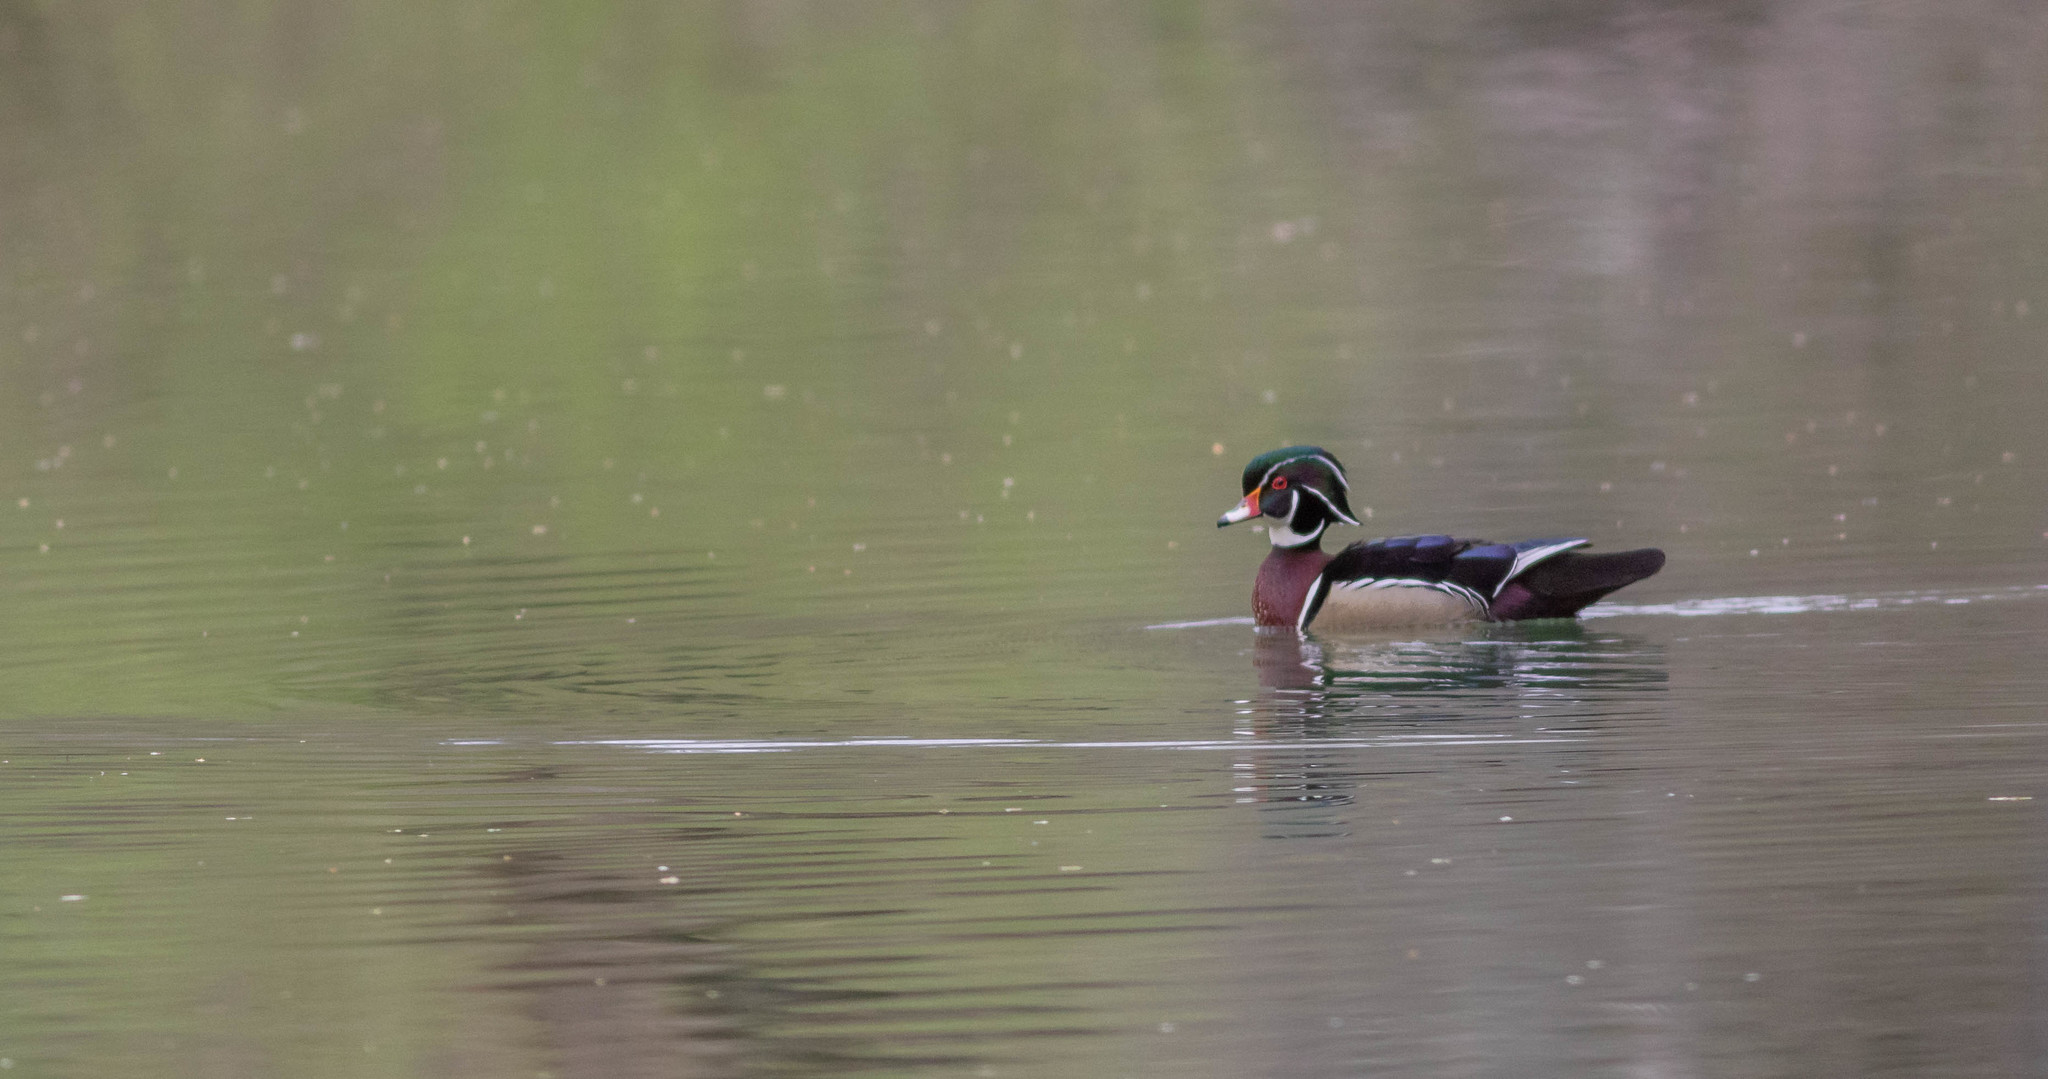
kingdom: Animalia
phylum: Chordata
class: Aves
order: Anseriformes
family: Anatidae
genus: Aix
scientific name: Aix sponsa
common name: Wood duck
